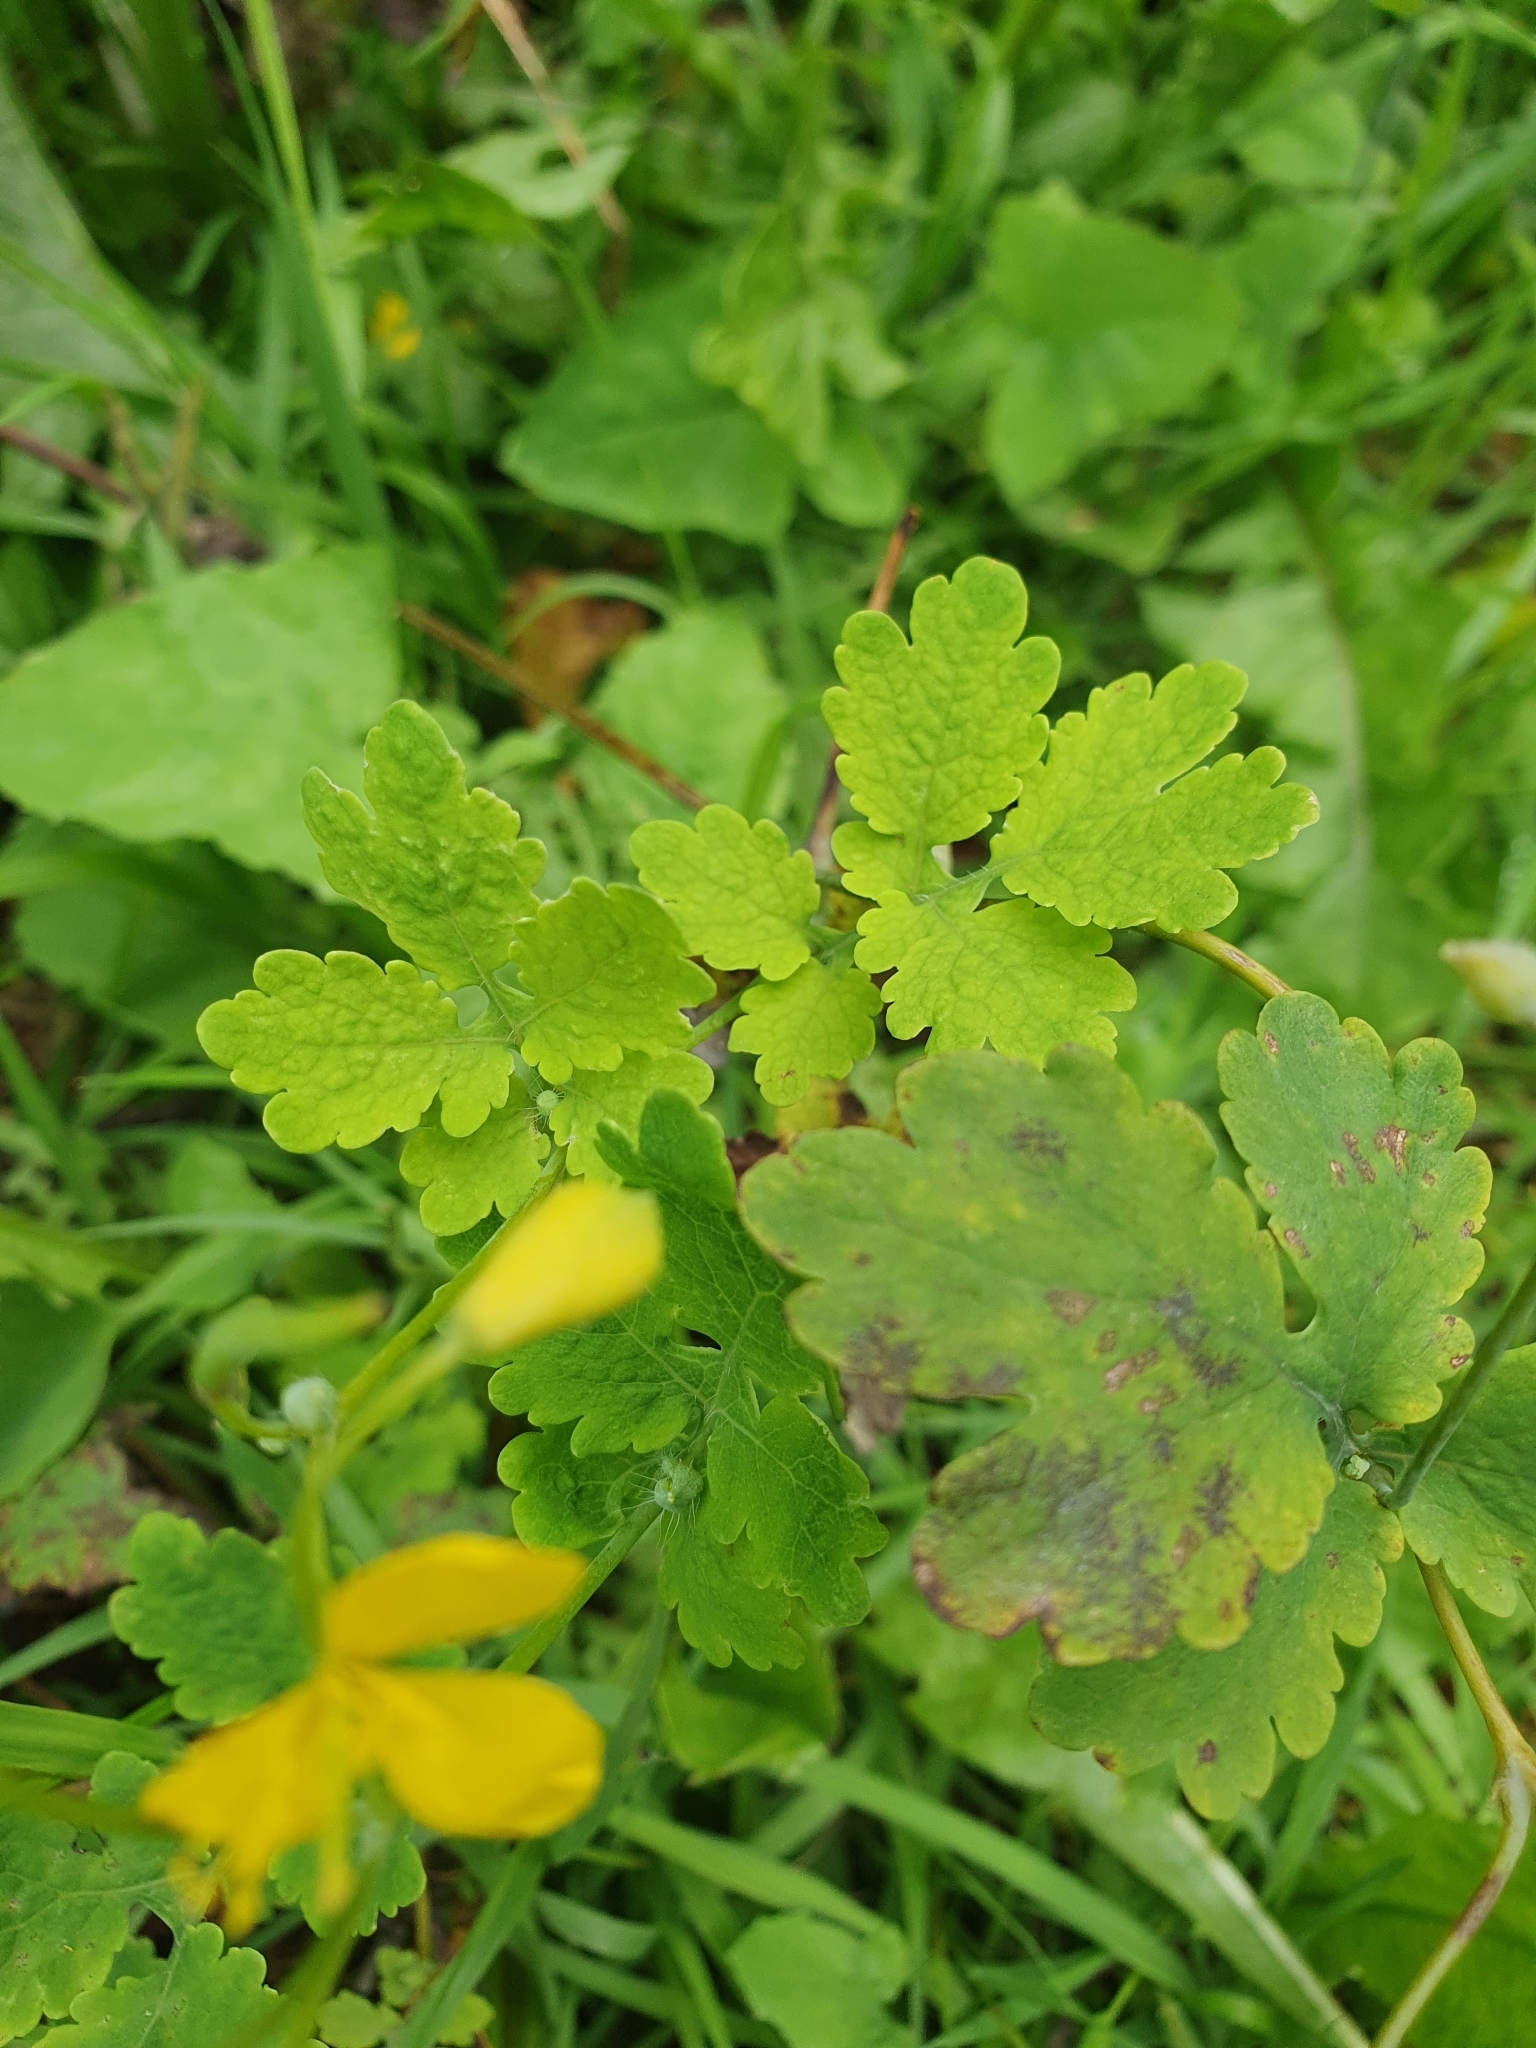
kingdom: Plantae
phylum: Tracheophyta
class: Magnoliopsida
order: Ranunculales
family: Papaveraceae
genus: Chelidonium
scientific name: Chelidonium majus
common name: Greater celandine
